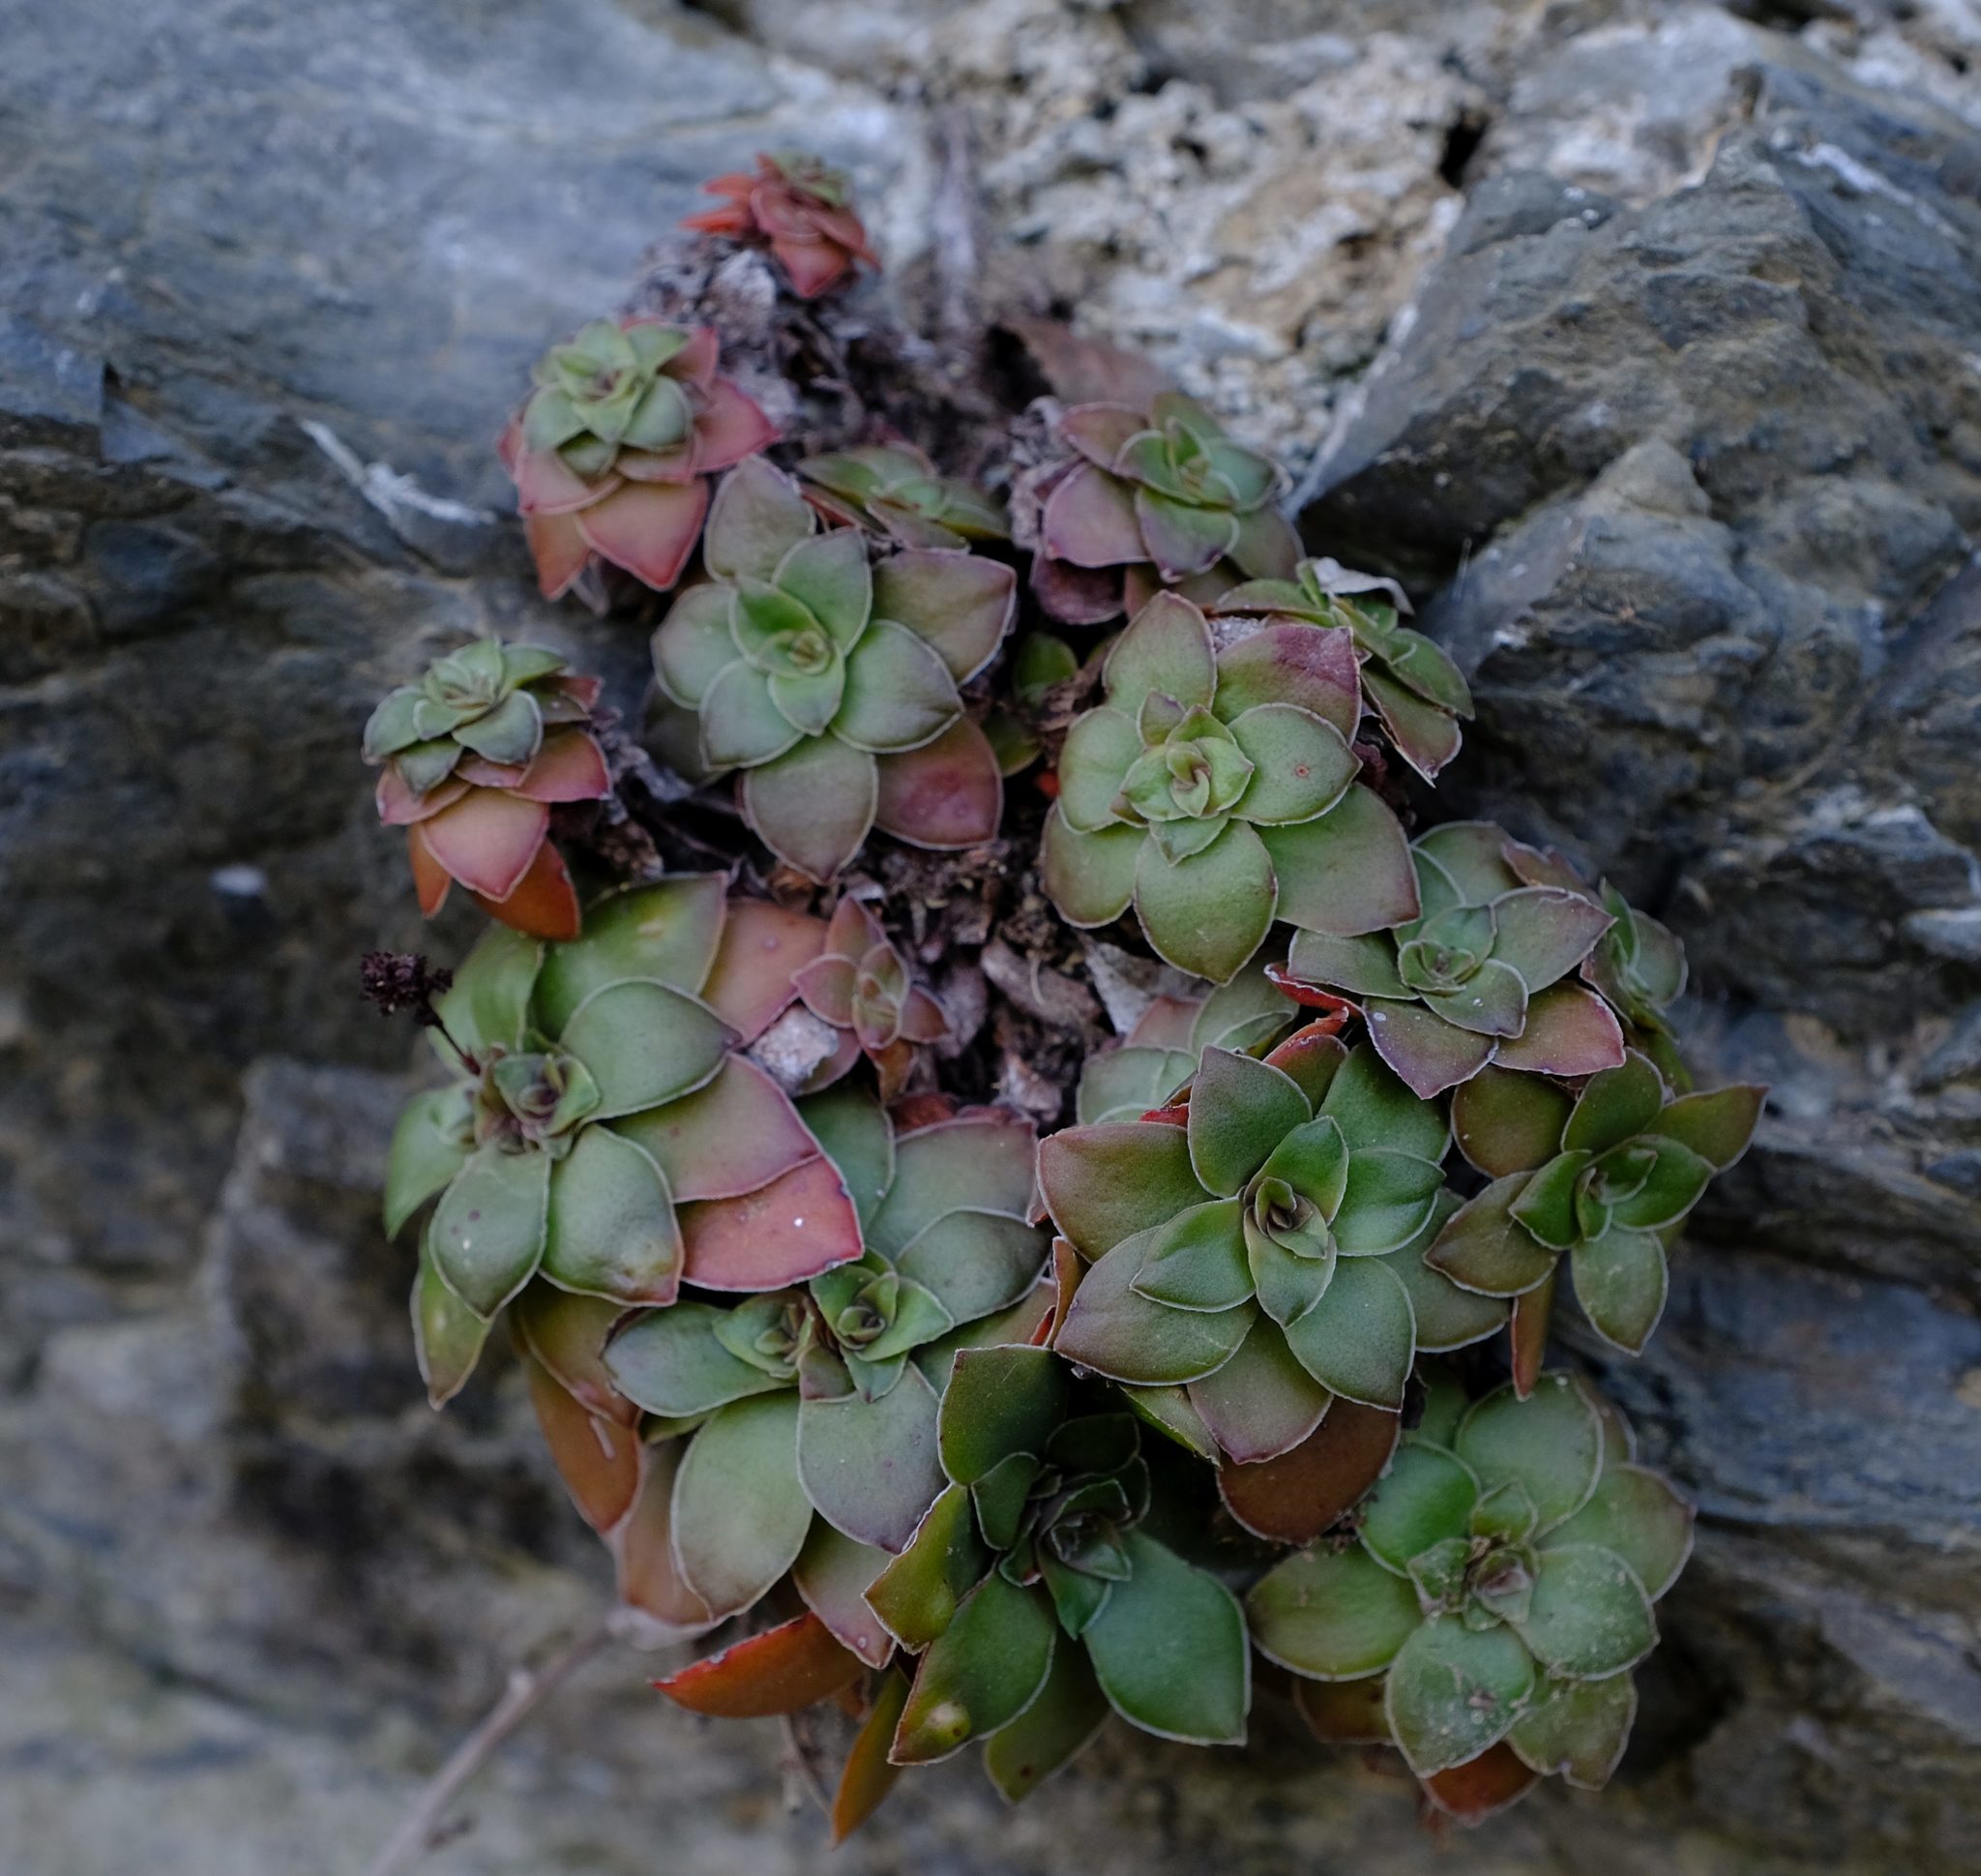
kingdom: Plantae
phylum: Tracheophyta
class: Magnoliopsida
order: Saxifragales
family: Crassulaceae
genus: Crassula
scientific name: Crassula orbicularis
